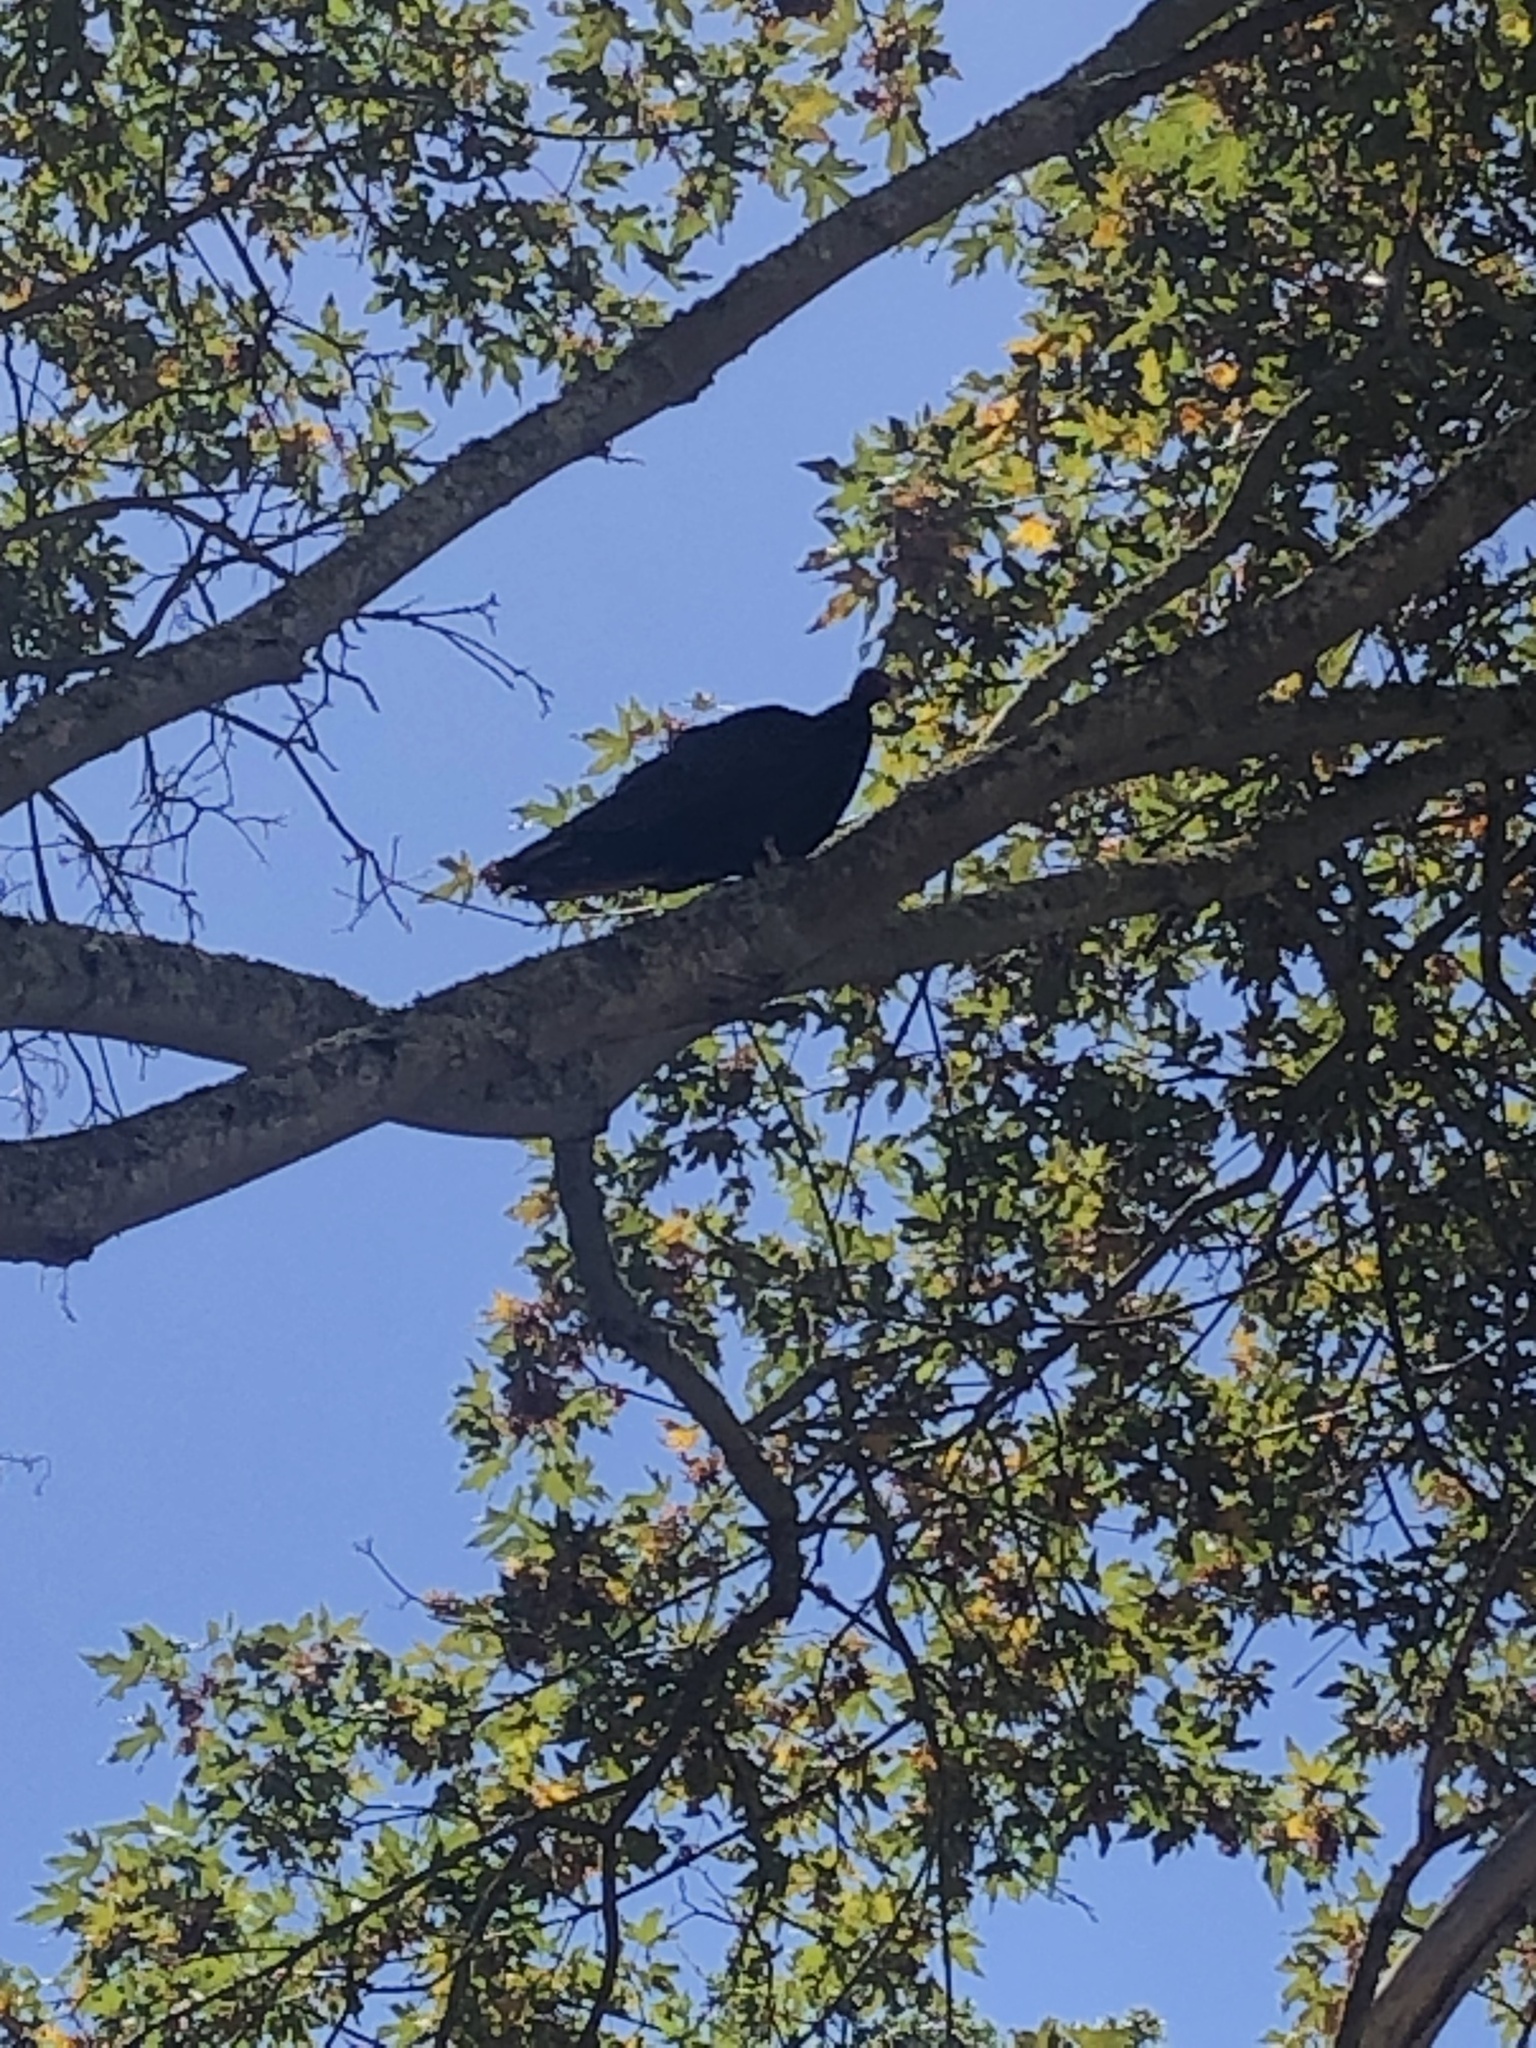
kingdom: Animalia
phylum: Chordata
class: Aves
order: Accipitriformes
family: Cathartidae
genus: Cathartes
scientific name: Cathartes aura
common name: Turkey vulture
